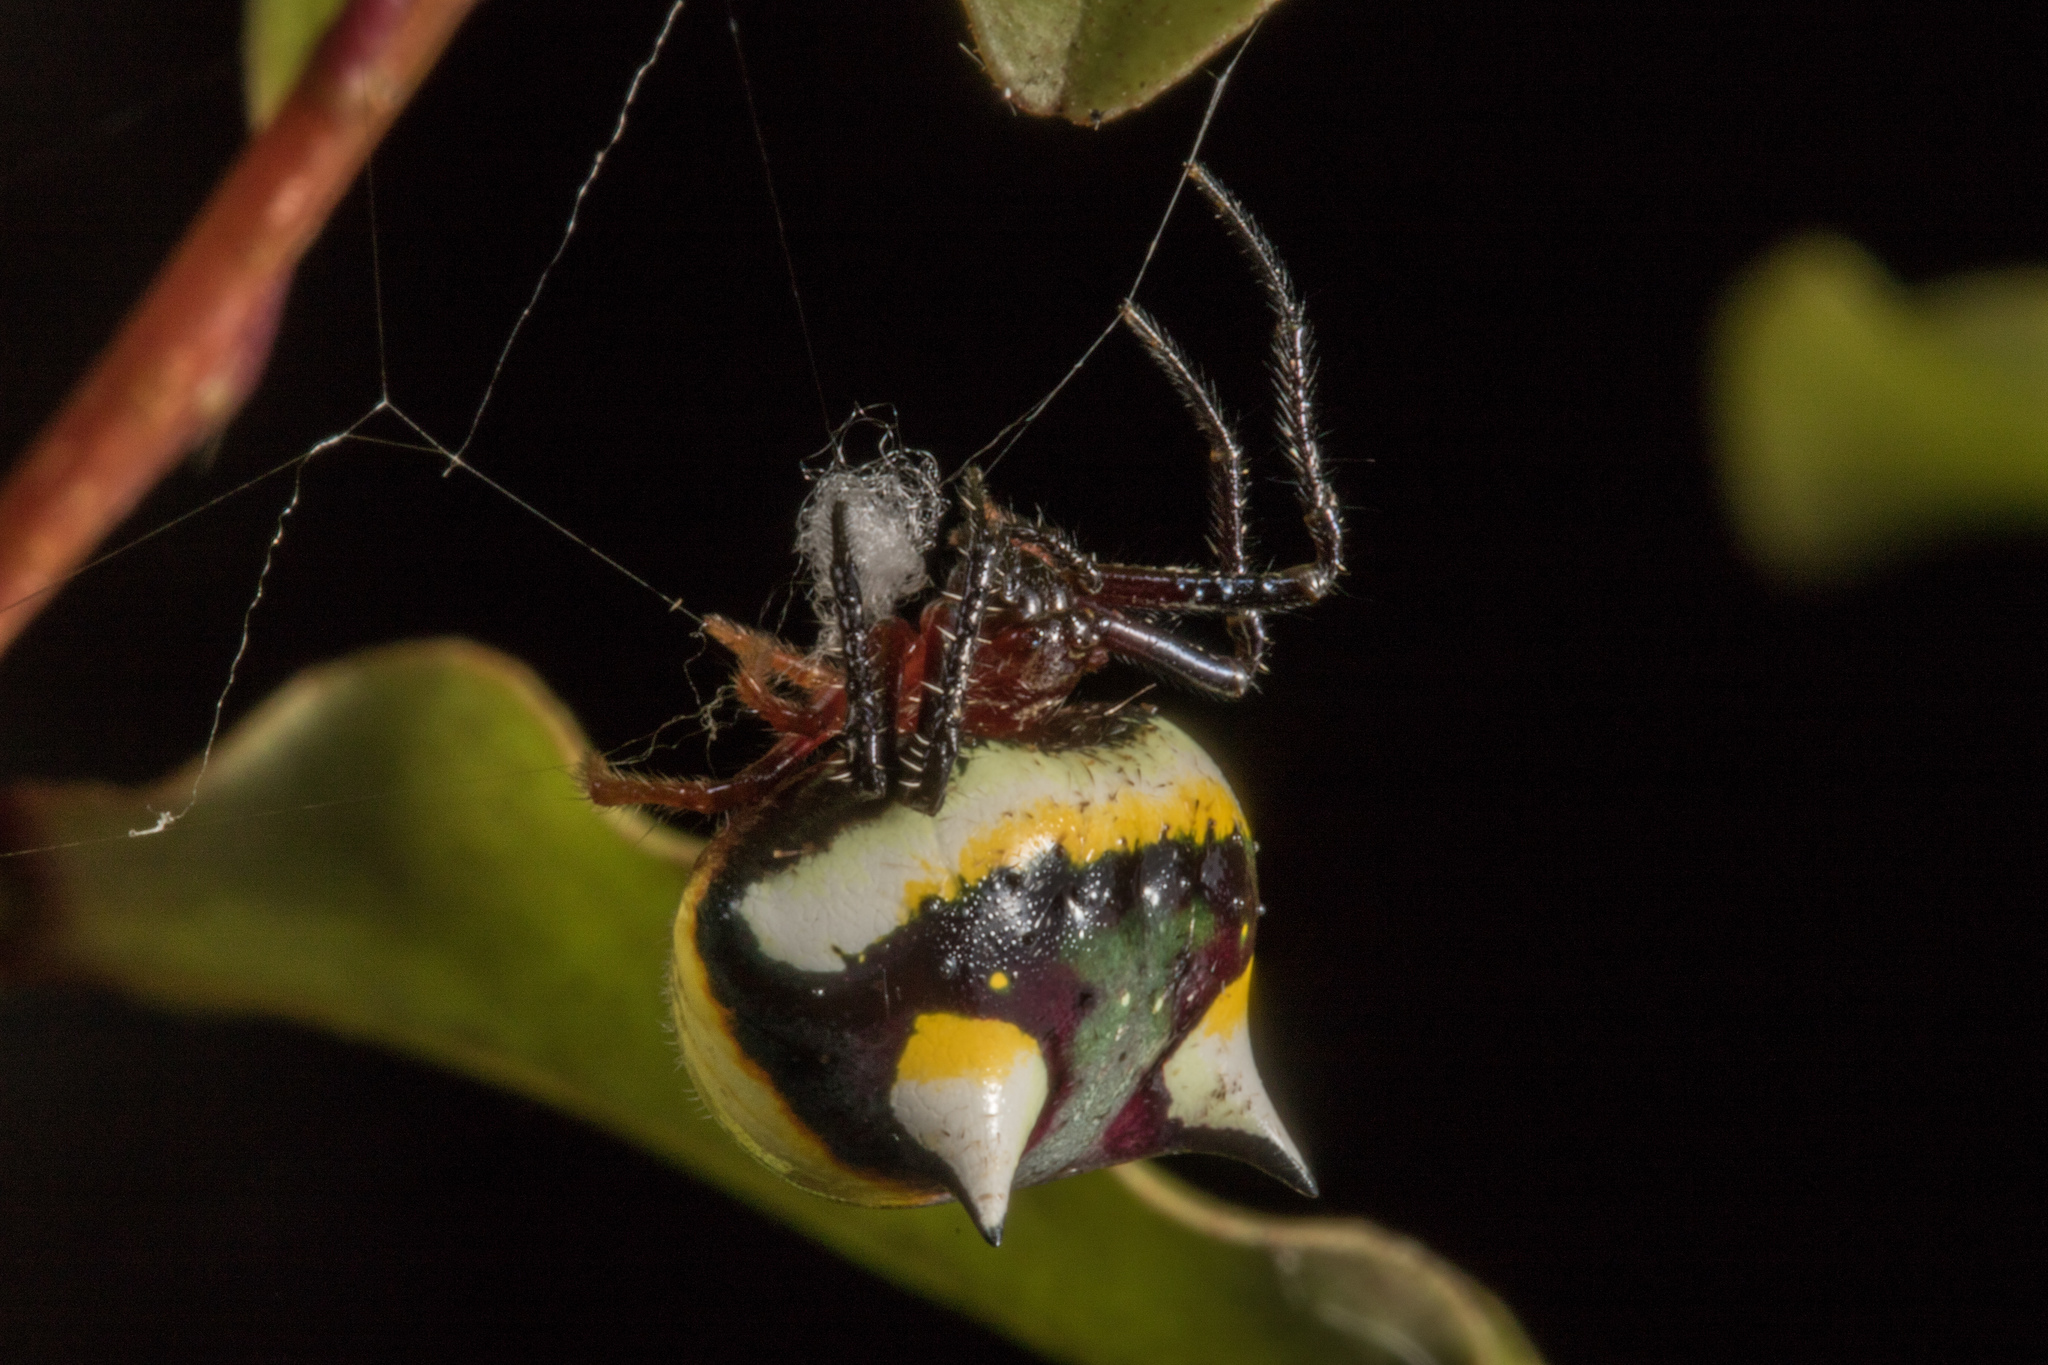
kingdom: Animalia
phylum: Arthropoda
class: Arachnida
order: Araneae
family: Araneidae
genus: Poecilopachys
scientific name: Poecilopachys australasia
